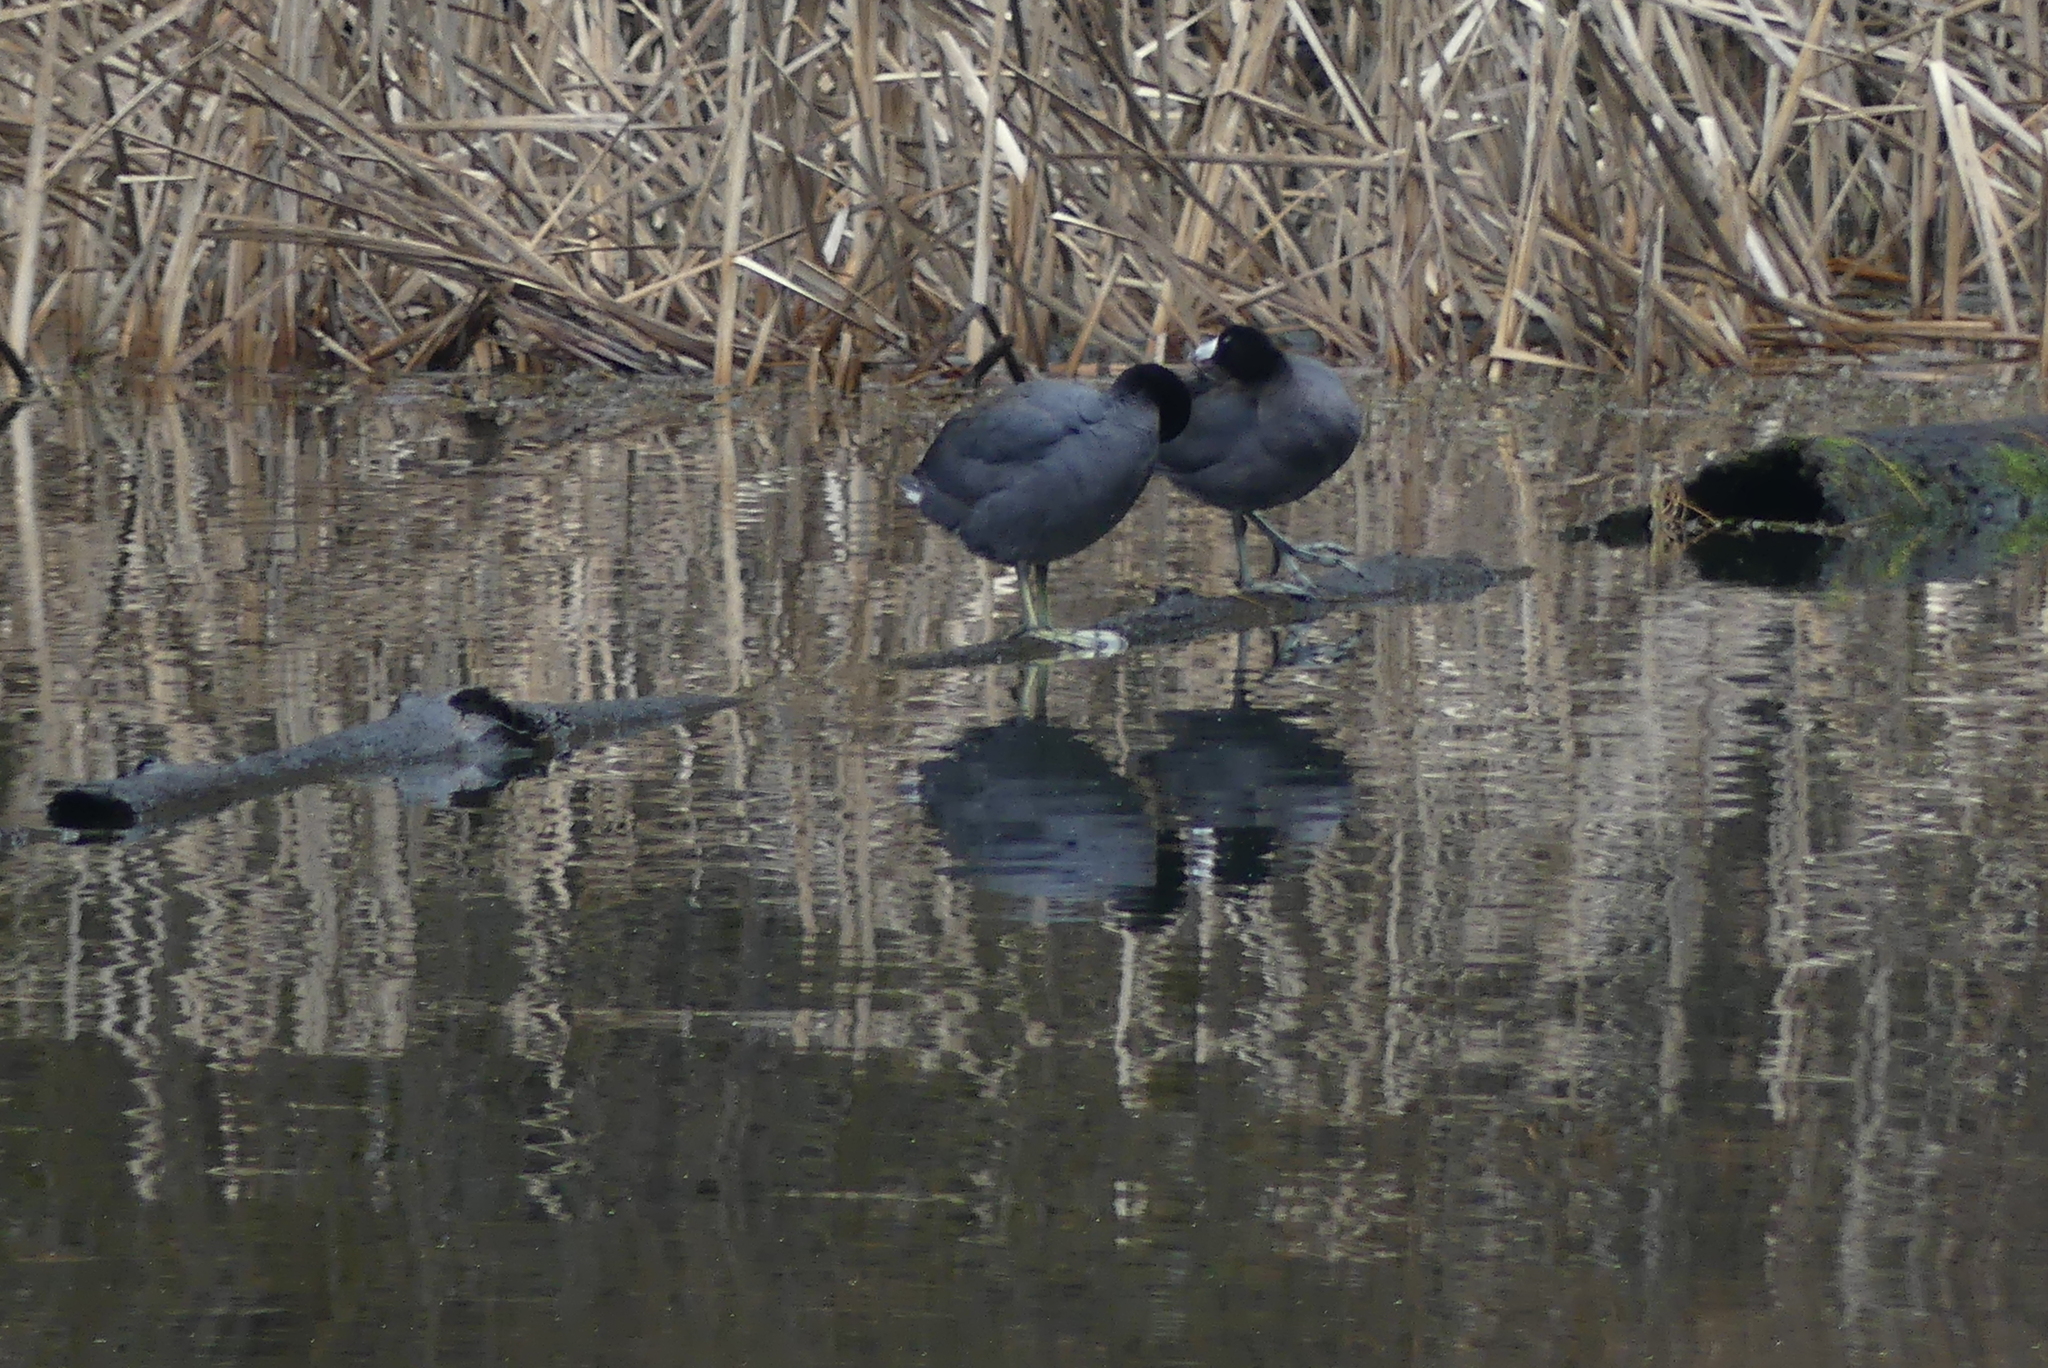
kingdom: Animalia
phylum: Chordata
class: Aves
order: Gruiformes
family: Rallidae
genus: Fulica
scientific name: Fulica americana
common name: American coot
